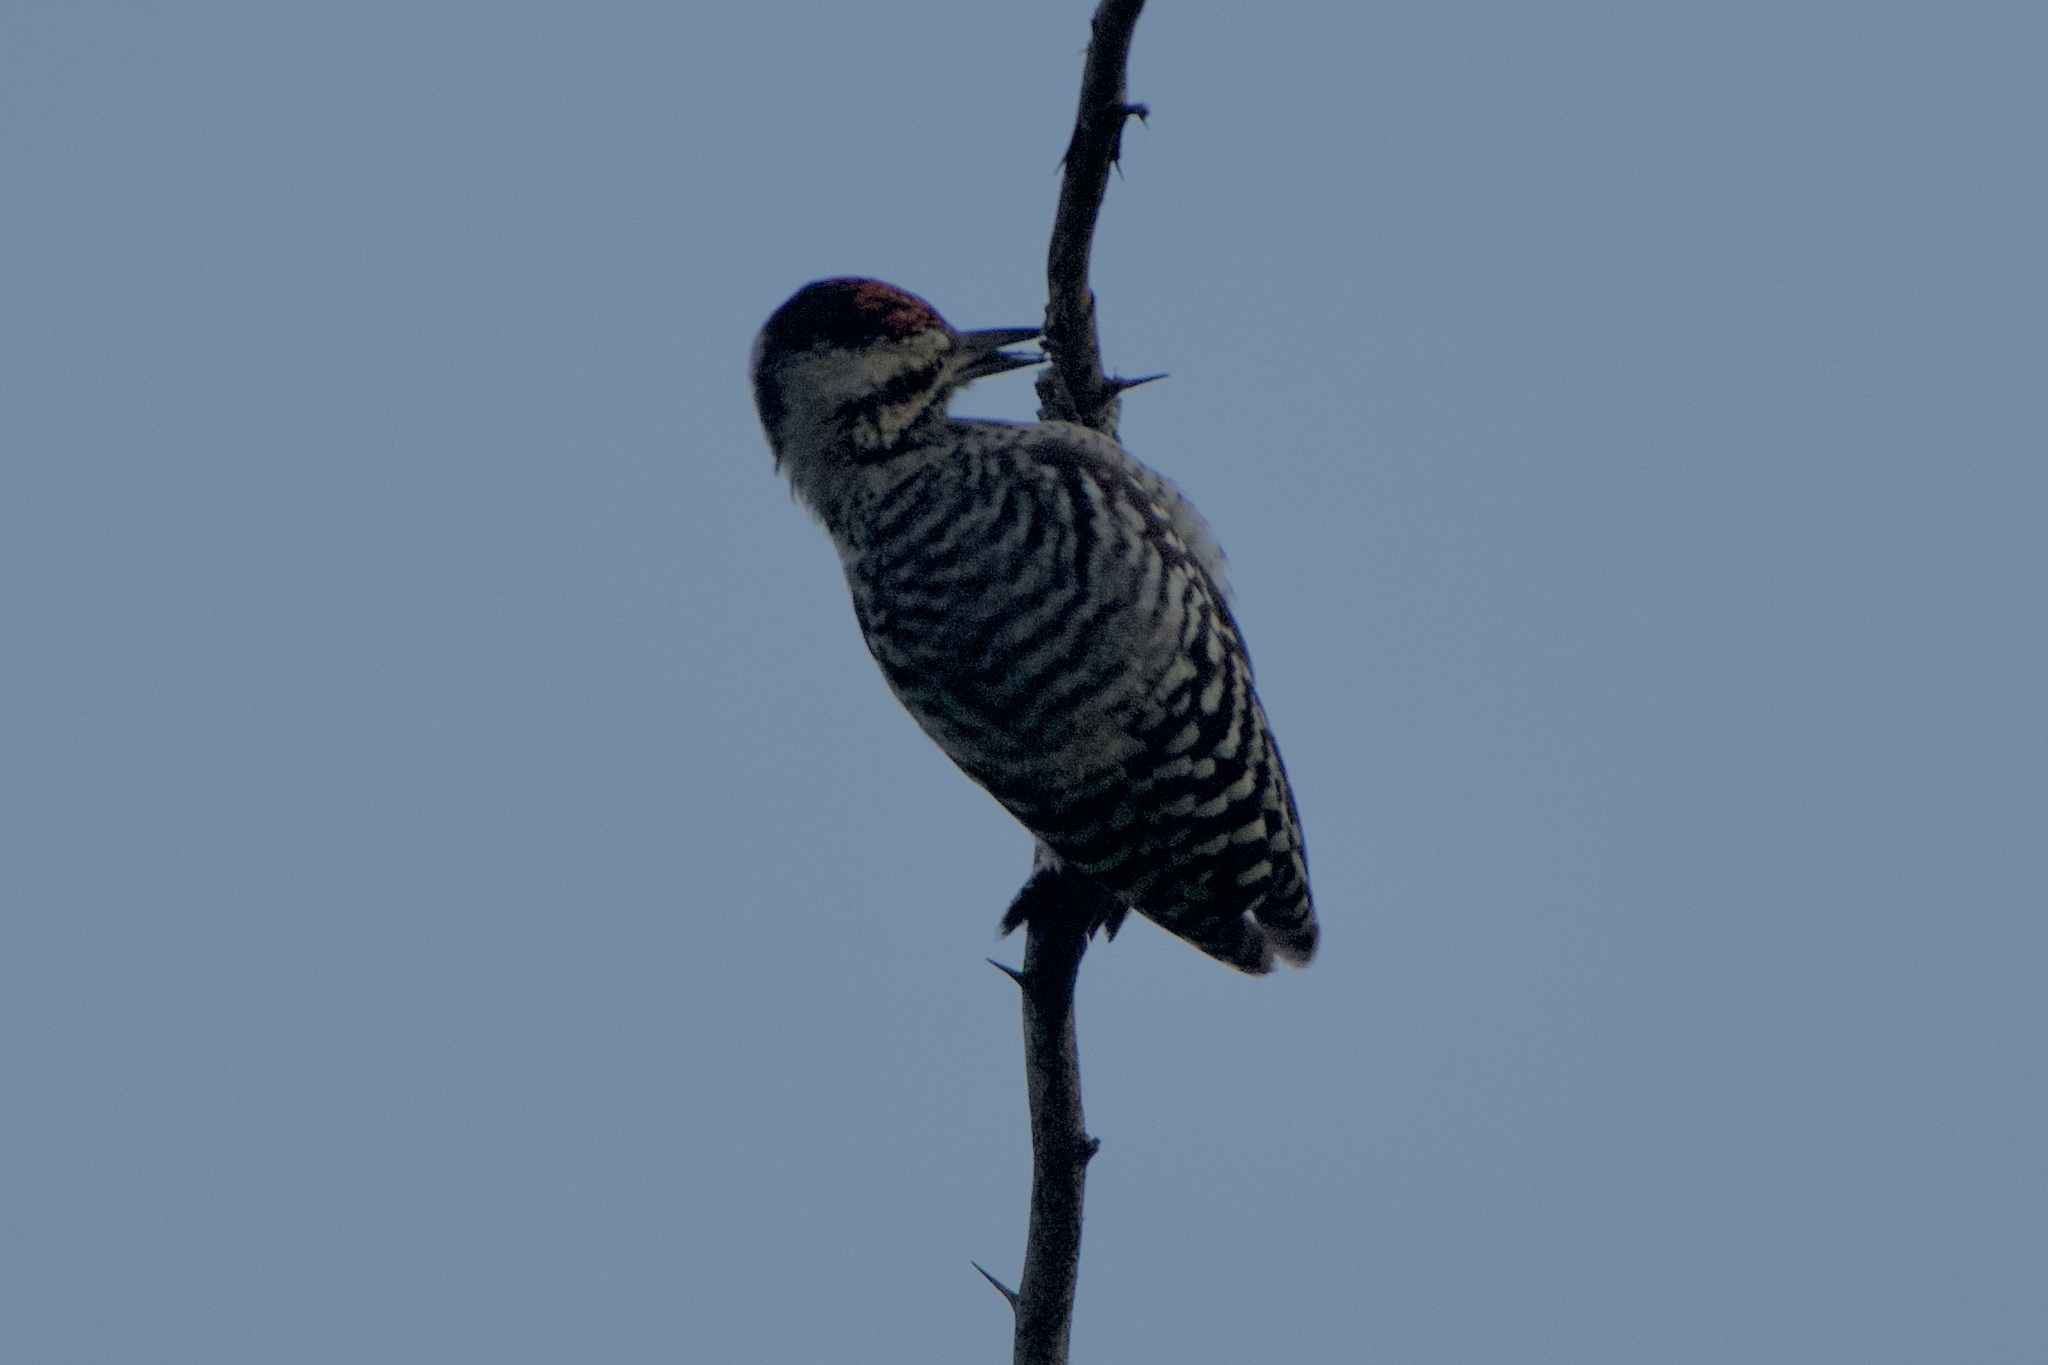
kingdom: Animalia
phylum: Chordata
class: Aves
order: Piciformes
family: Picidae
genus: Dryobates
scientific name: Dryobates scalaris
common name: Ladder-backed woodpecker
